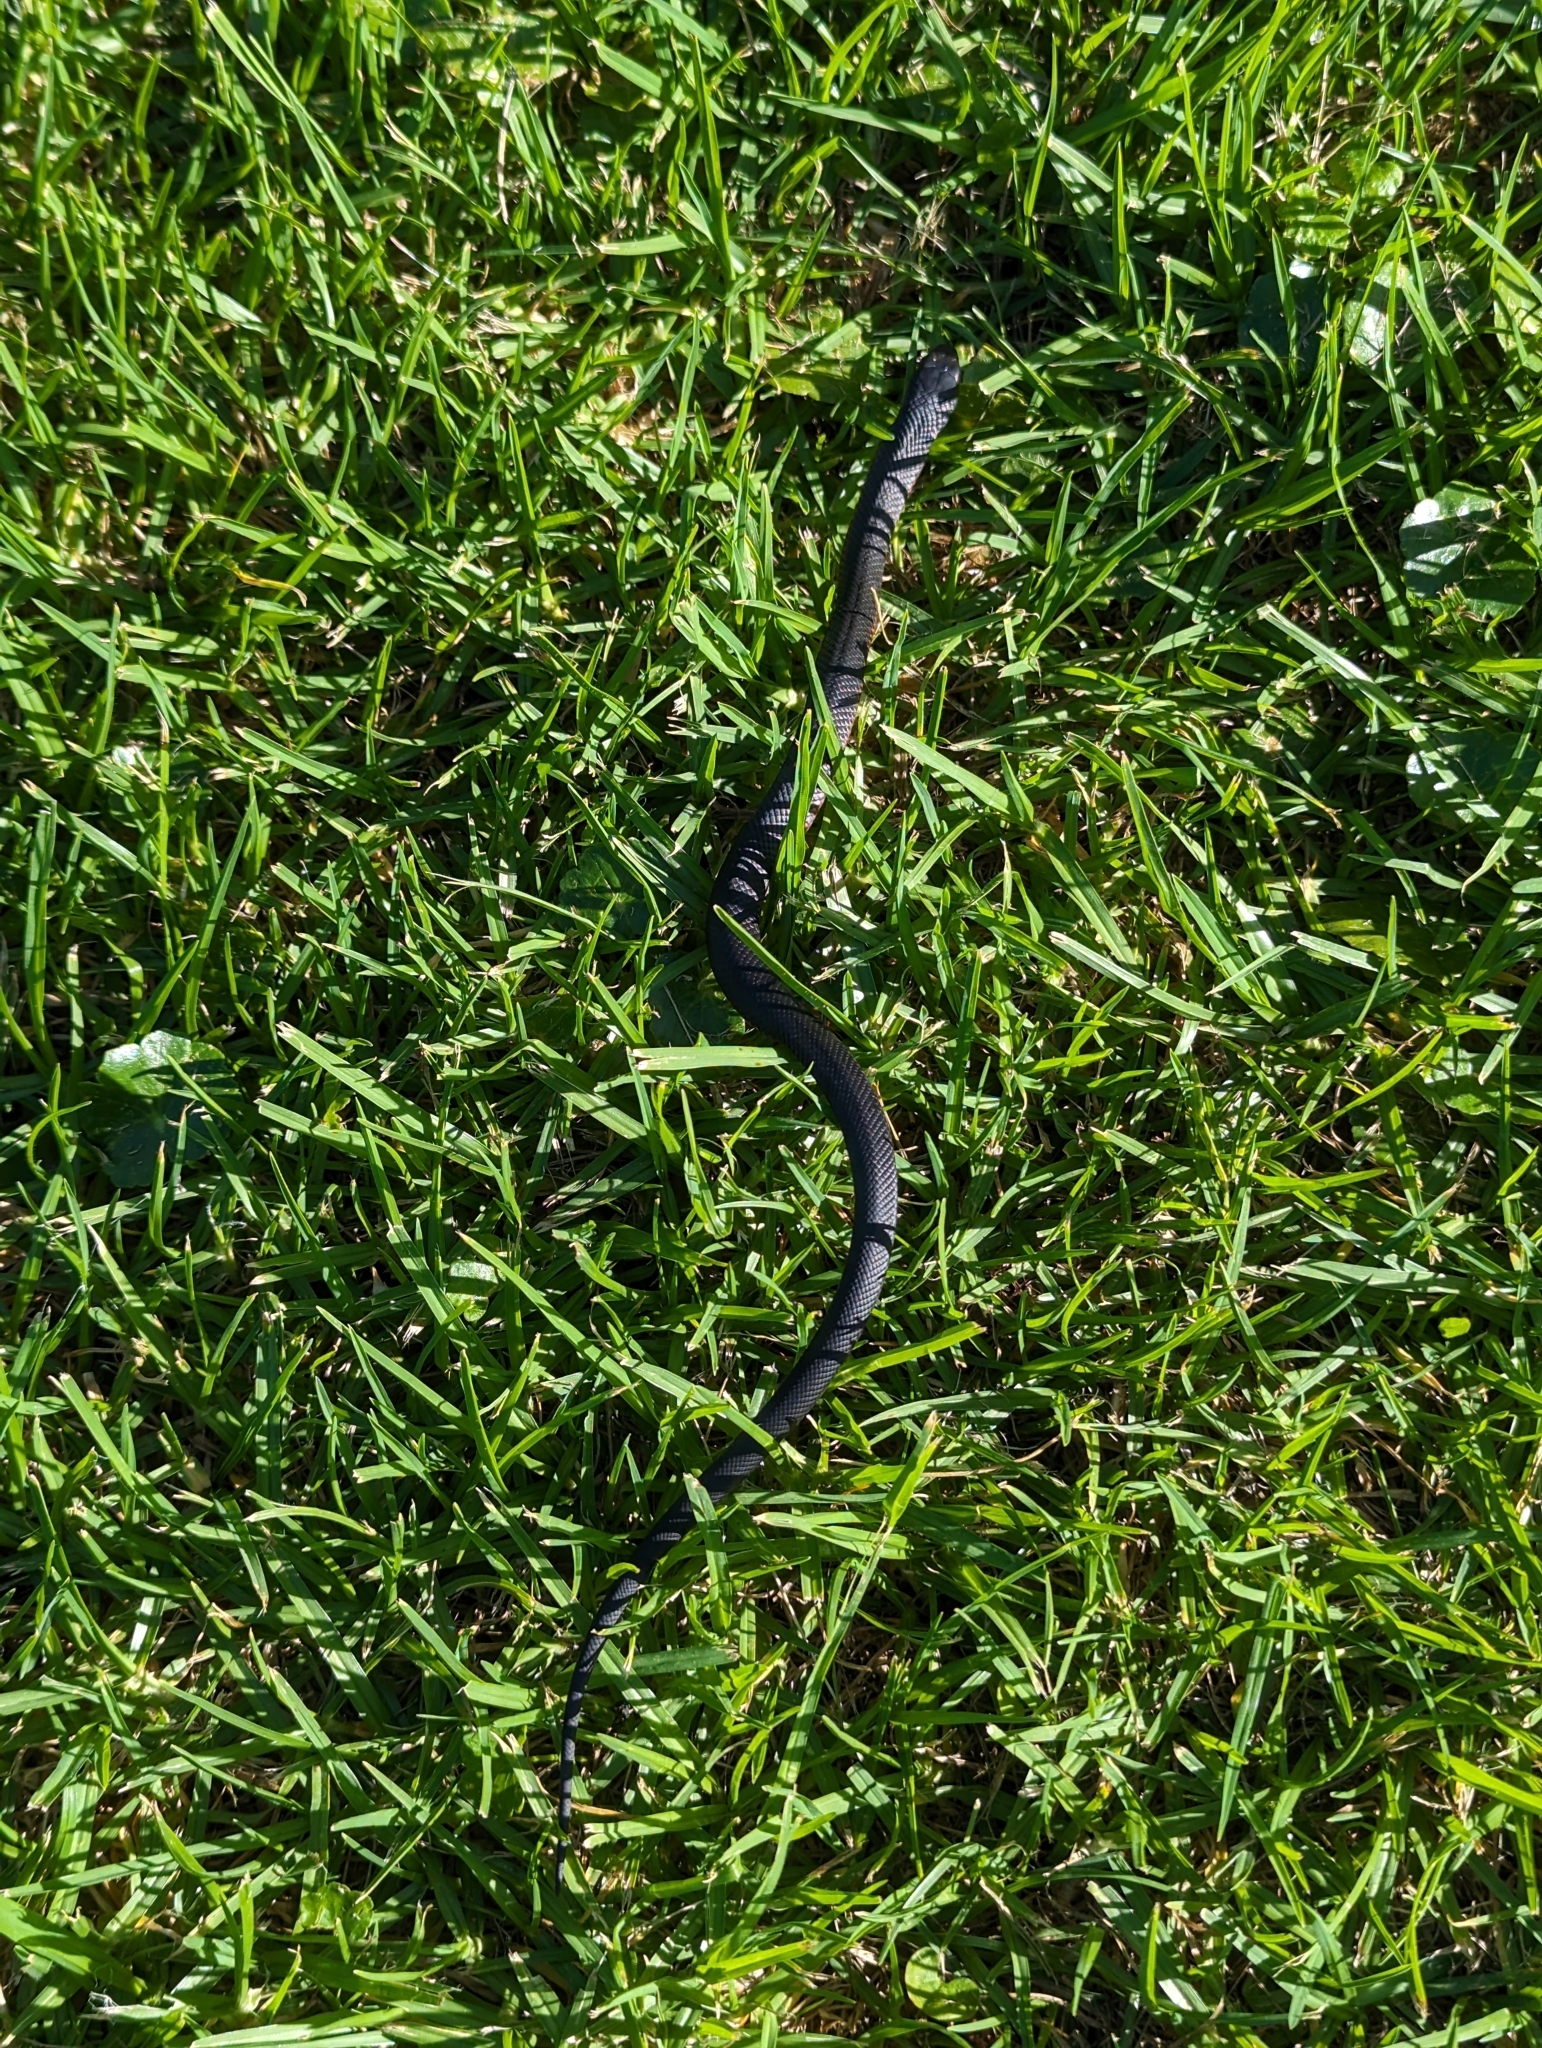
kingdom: Animalia
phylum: Chordata
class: Squamata
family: Elapidae
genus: Pseudechis
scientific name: Pseudechis porphyriacus
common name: Australian black snake
